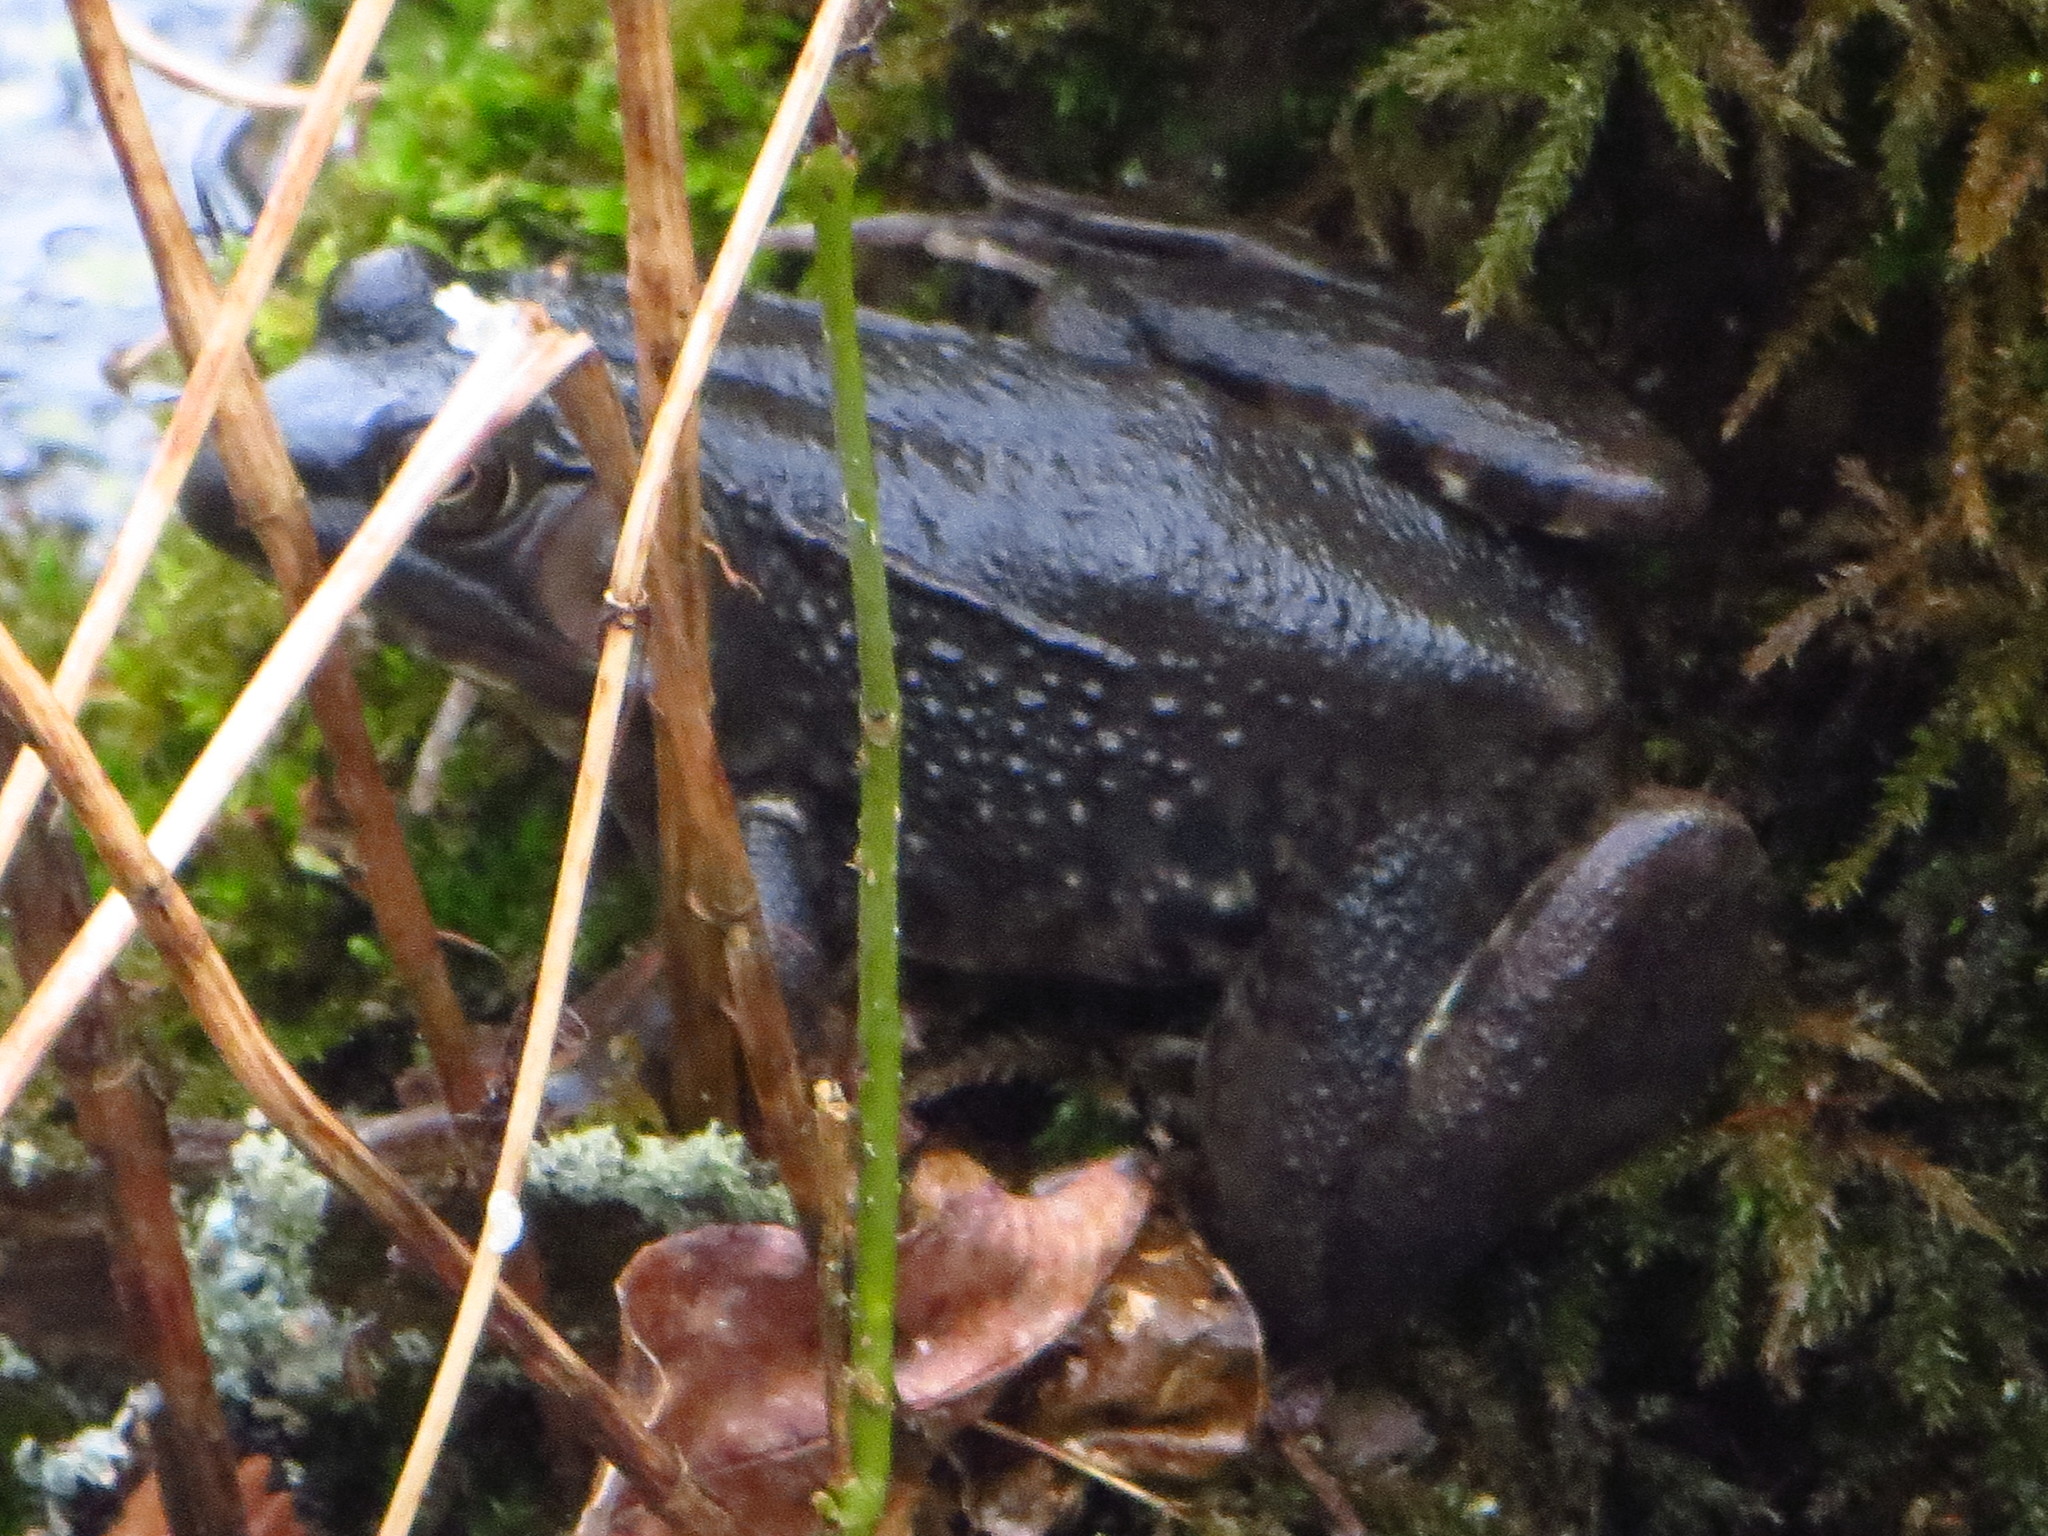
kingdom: Animalia
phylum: Chordata
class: Amphibia
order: Anura
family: Ranidae
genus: Lithobates
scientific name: Lithobates clamitans
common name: Green frog
